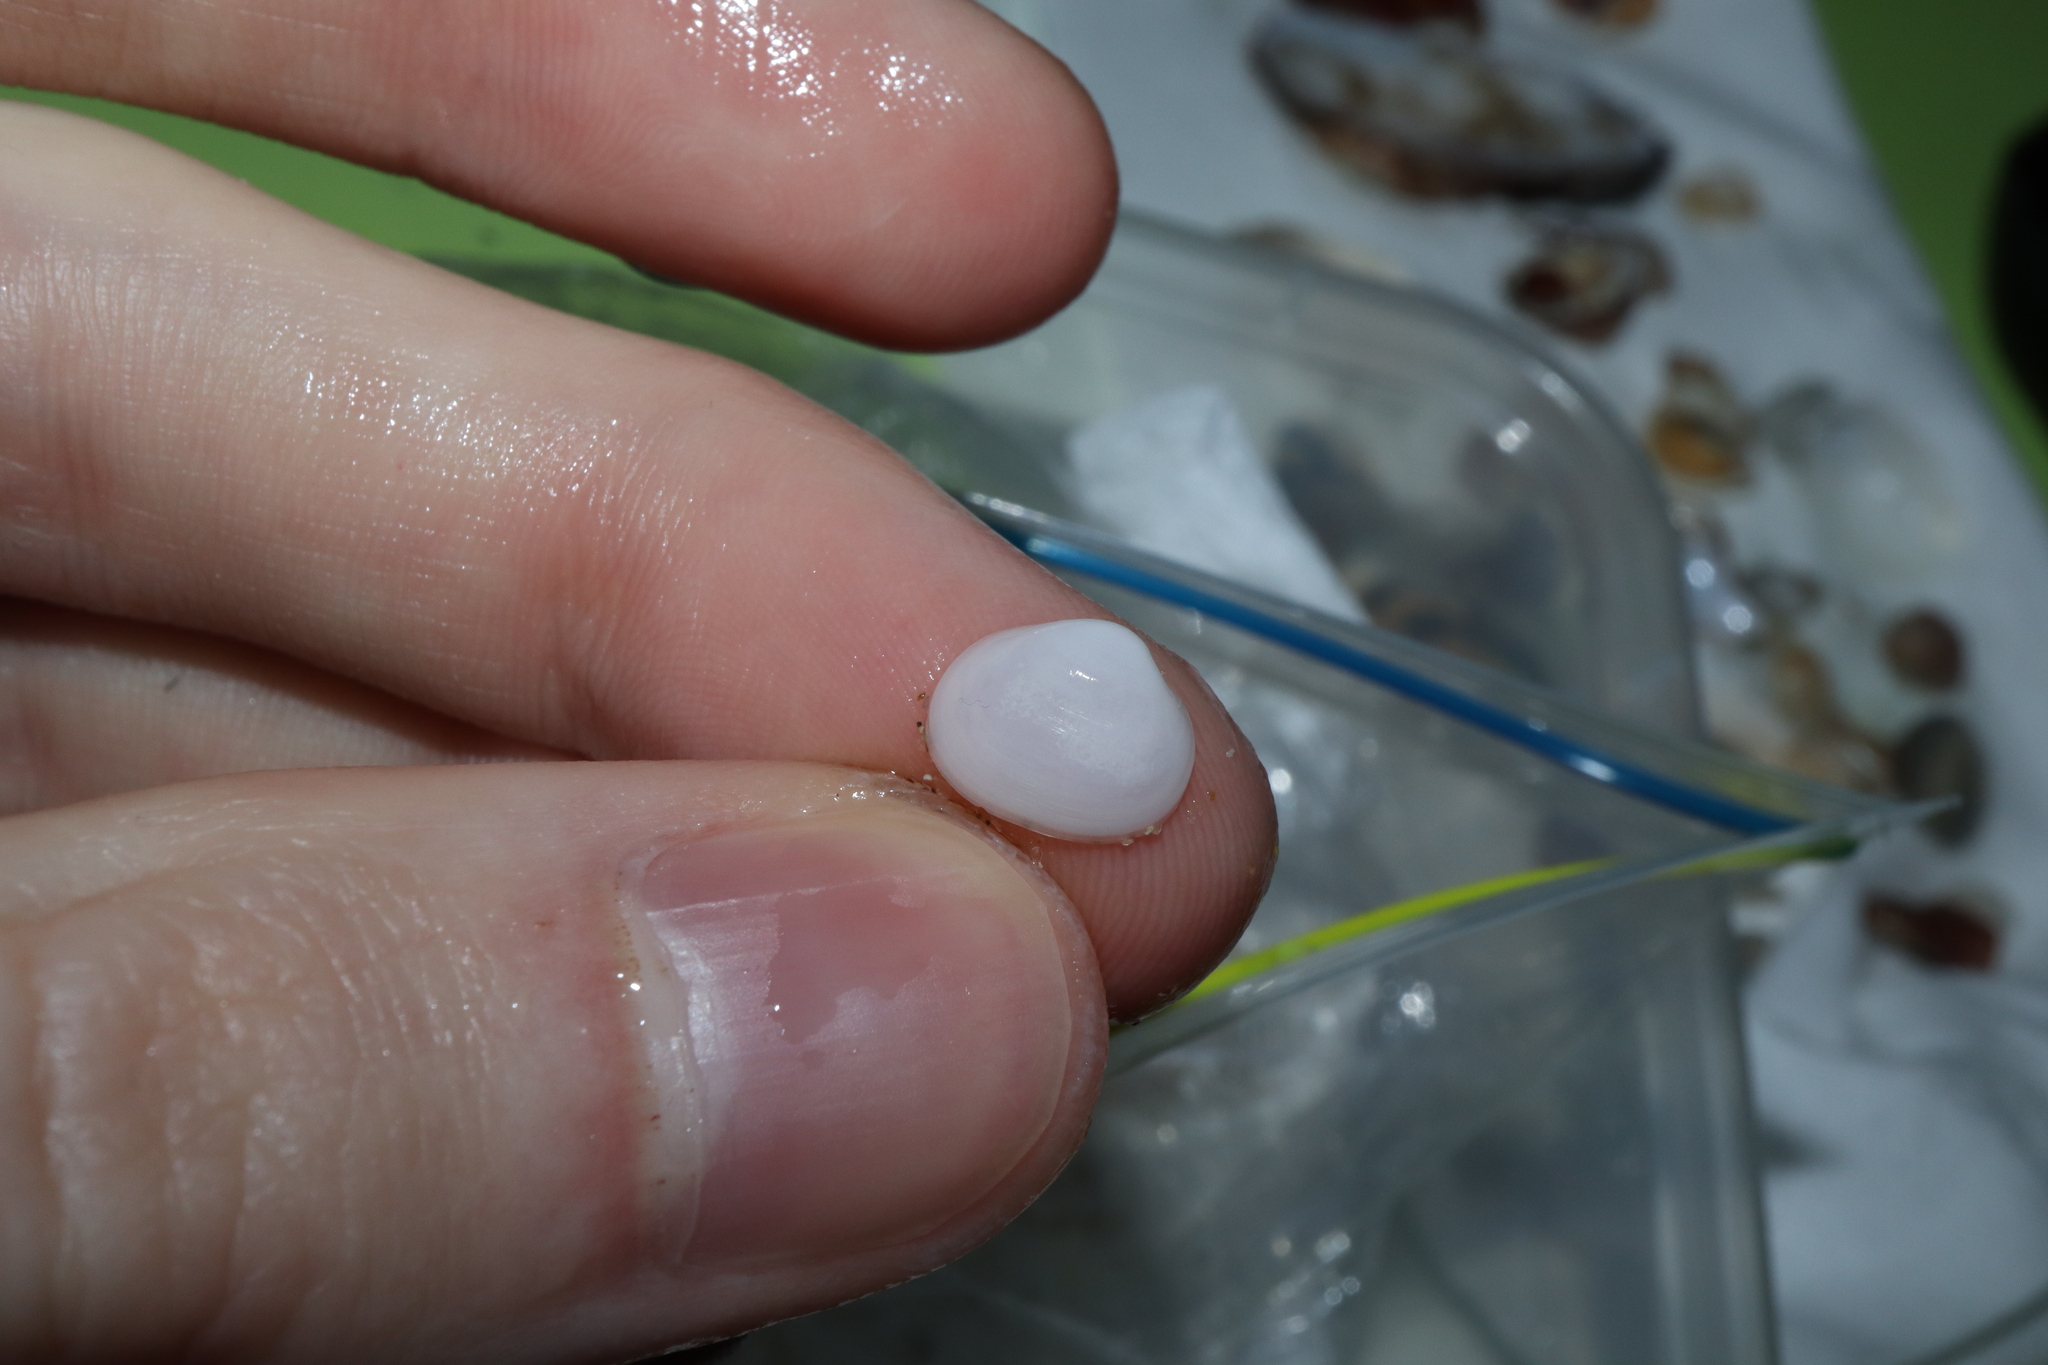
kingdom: Animalia
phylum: Mollusca
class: Bivalvia
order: Galeommatida
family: Galeommatidae
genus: Scintillula
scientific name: Scintillula solida
